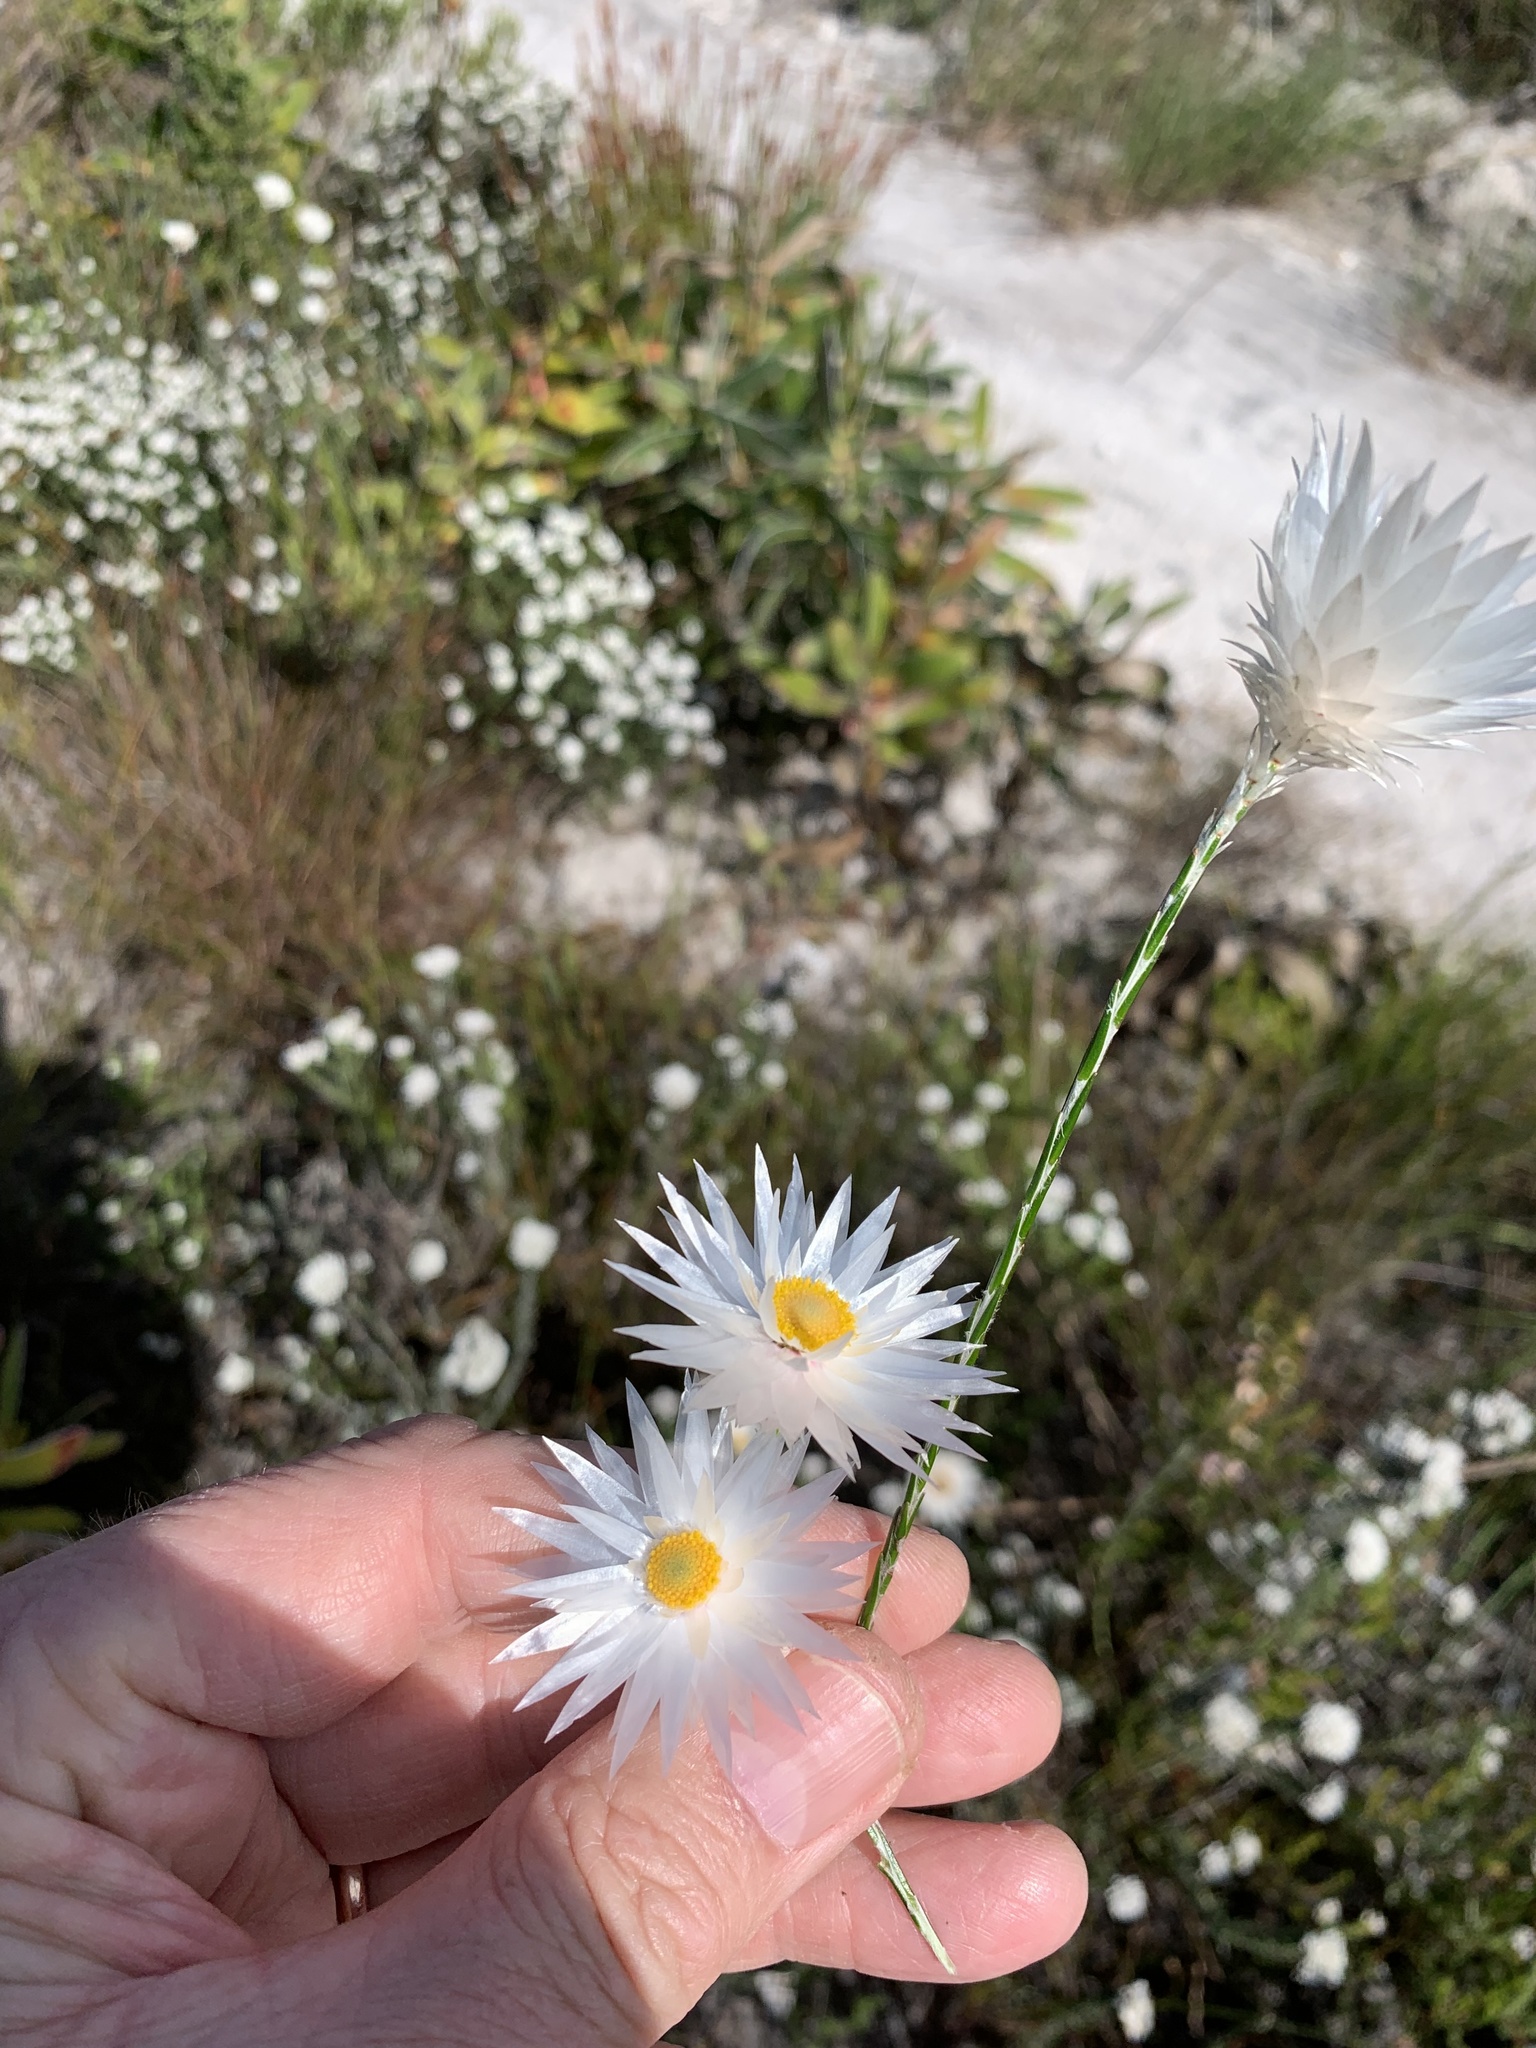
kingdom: Plantae
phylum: Tracheophyta
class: Magnoliopsida
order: Asterales
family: Asteraceae
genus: Edmondia
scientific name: Edmondia sesamoides
